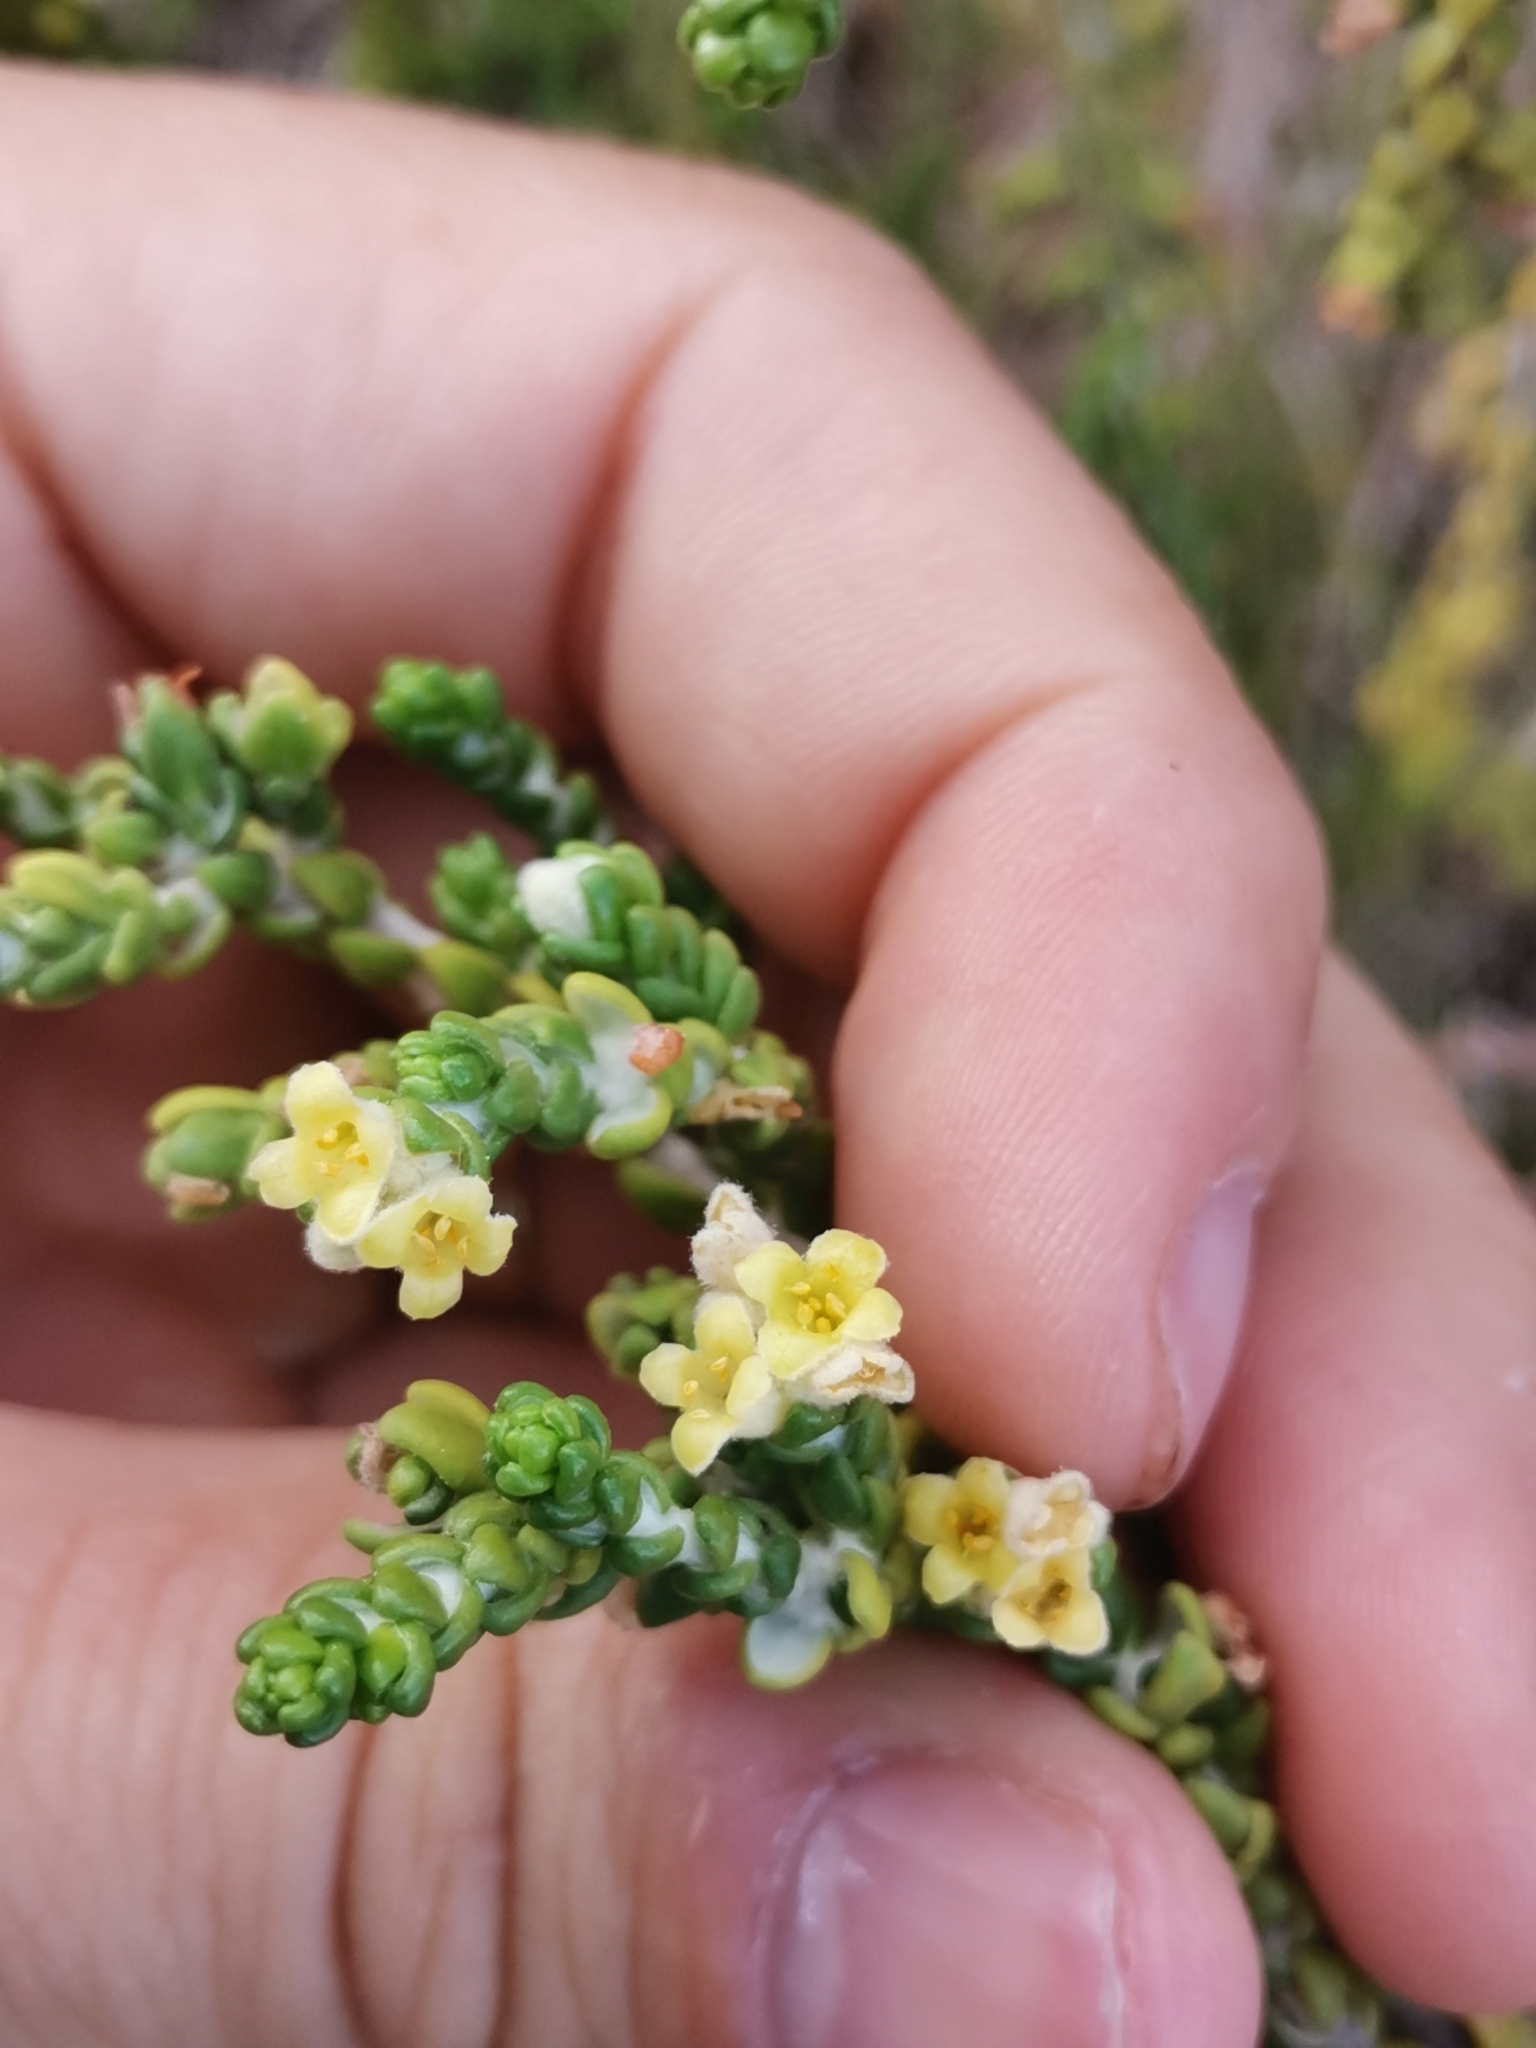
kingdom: Plantae
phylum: Tracheophyta
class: Magnoliopsida
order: Malvales
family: Thymelaeaceae
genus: Thymelaea
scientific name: Thymelaea hirsuta
